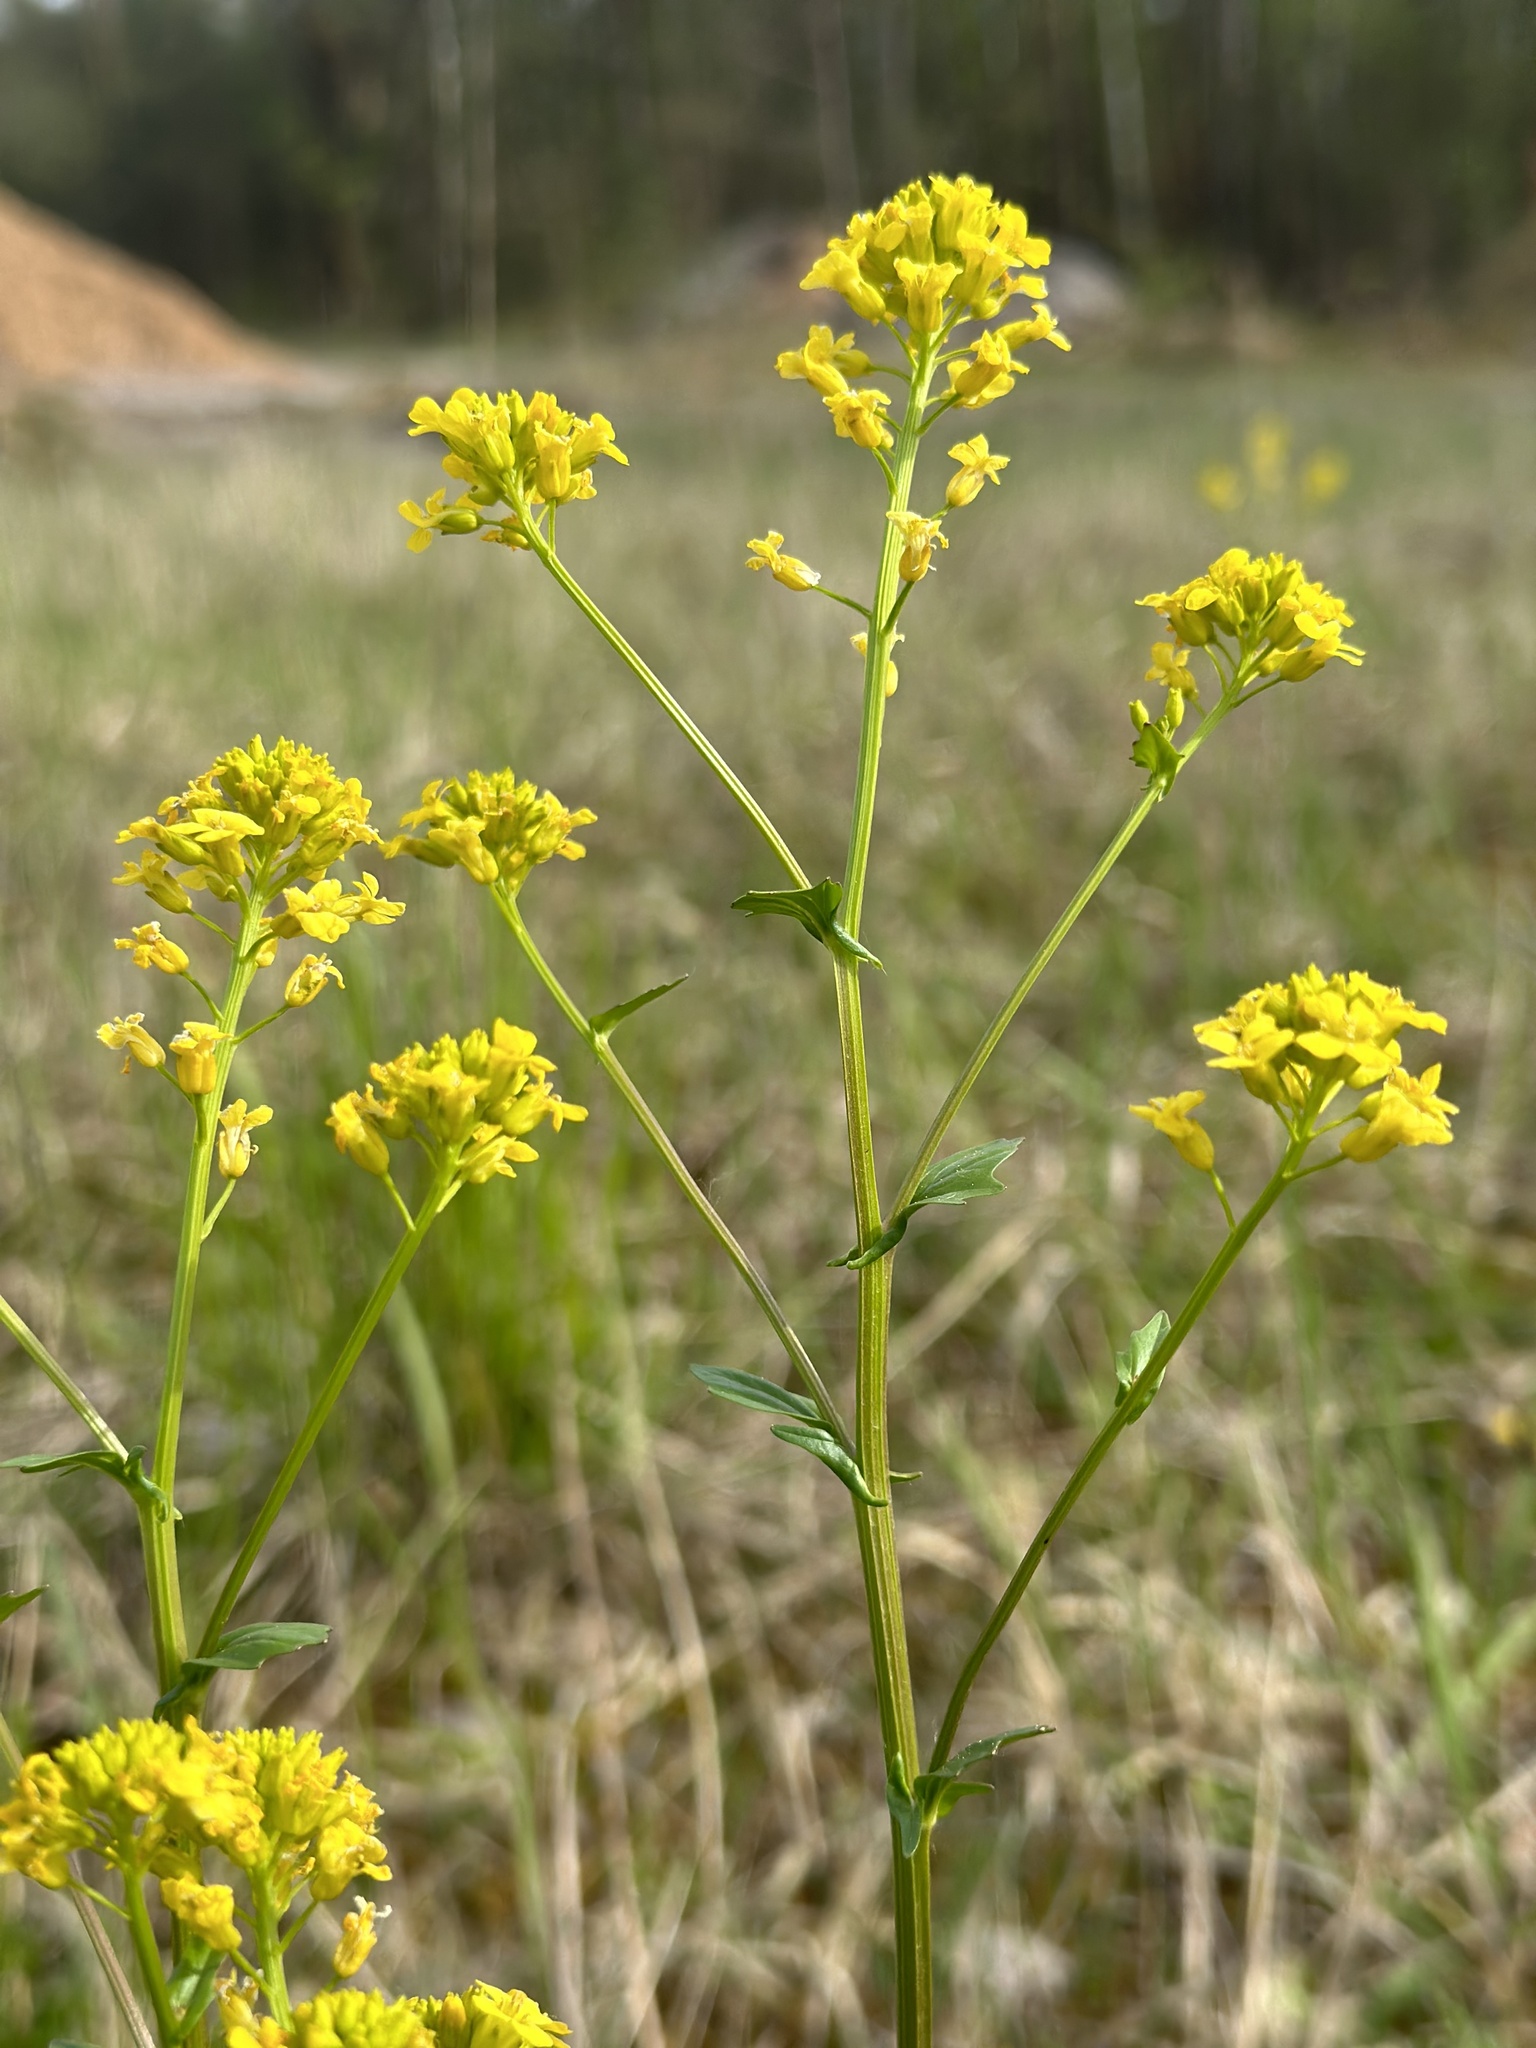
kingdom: Plantae
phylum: Tracheophyta
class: Magnoliopsida
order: Brassicales
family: Brassicaceae
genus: Barbarea
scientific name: Barbarea vulgaris
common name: Cressy-greens
